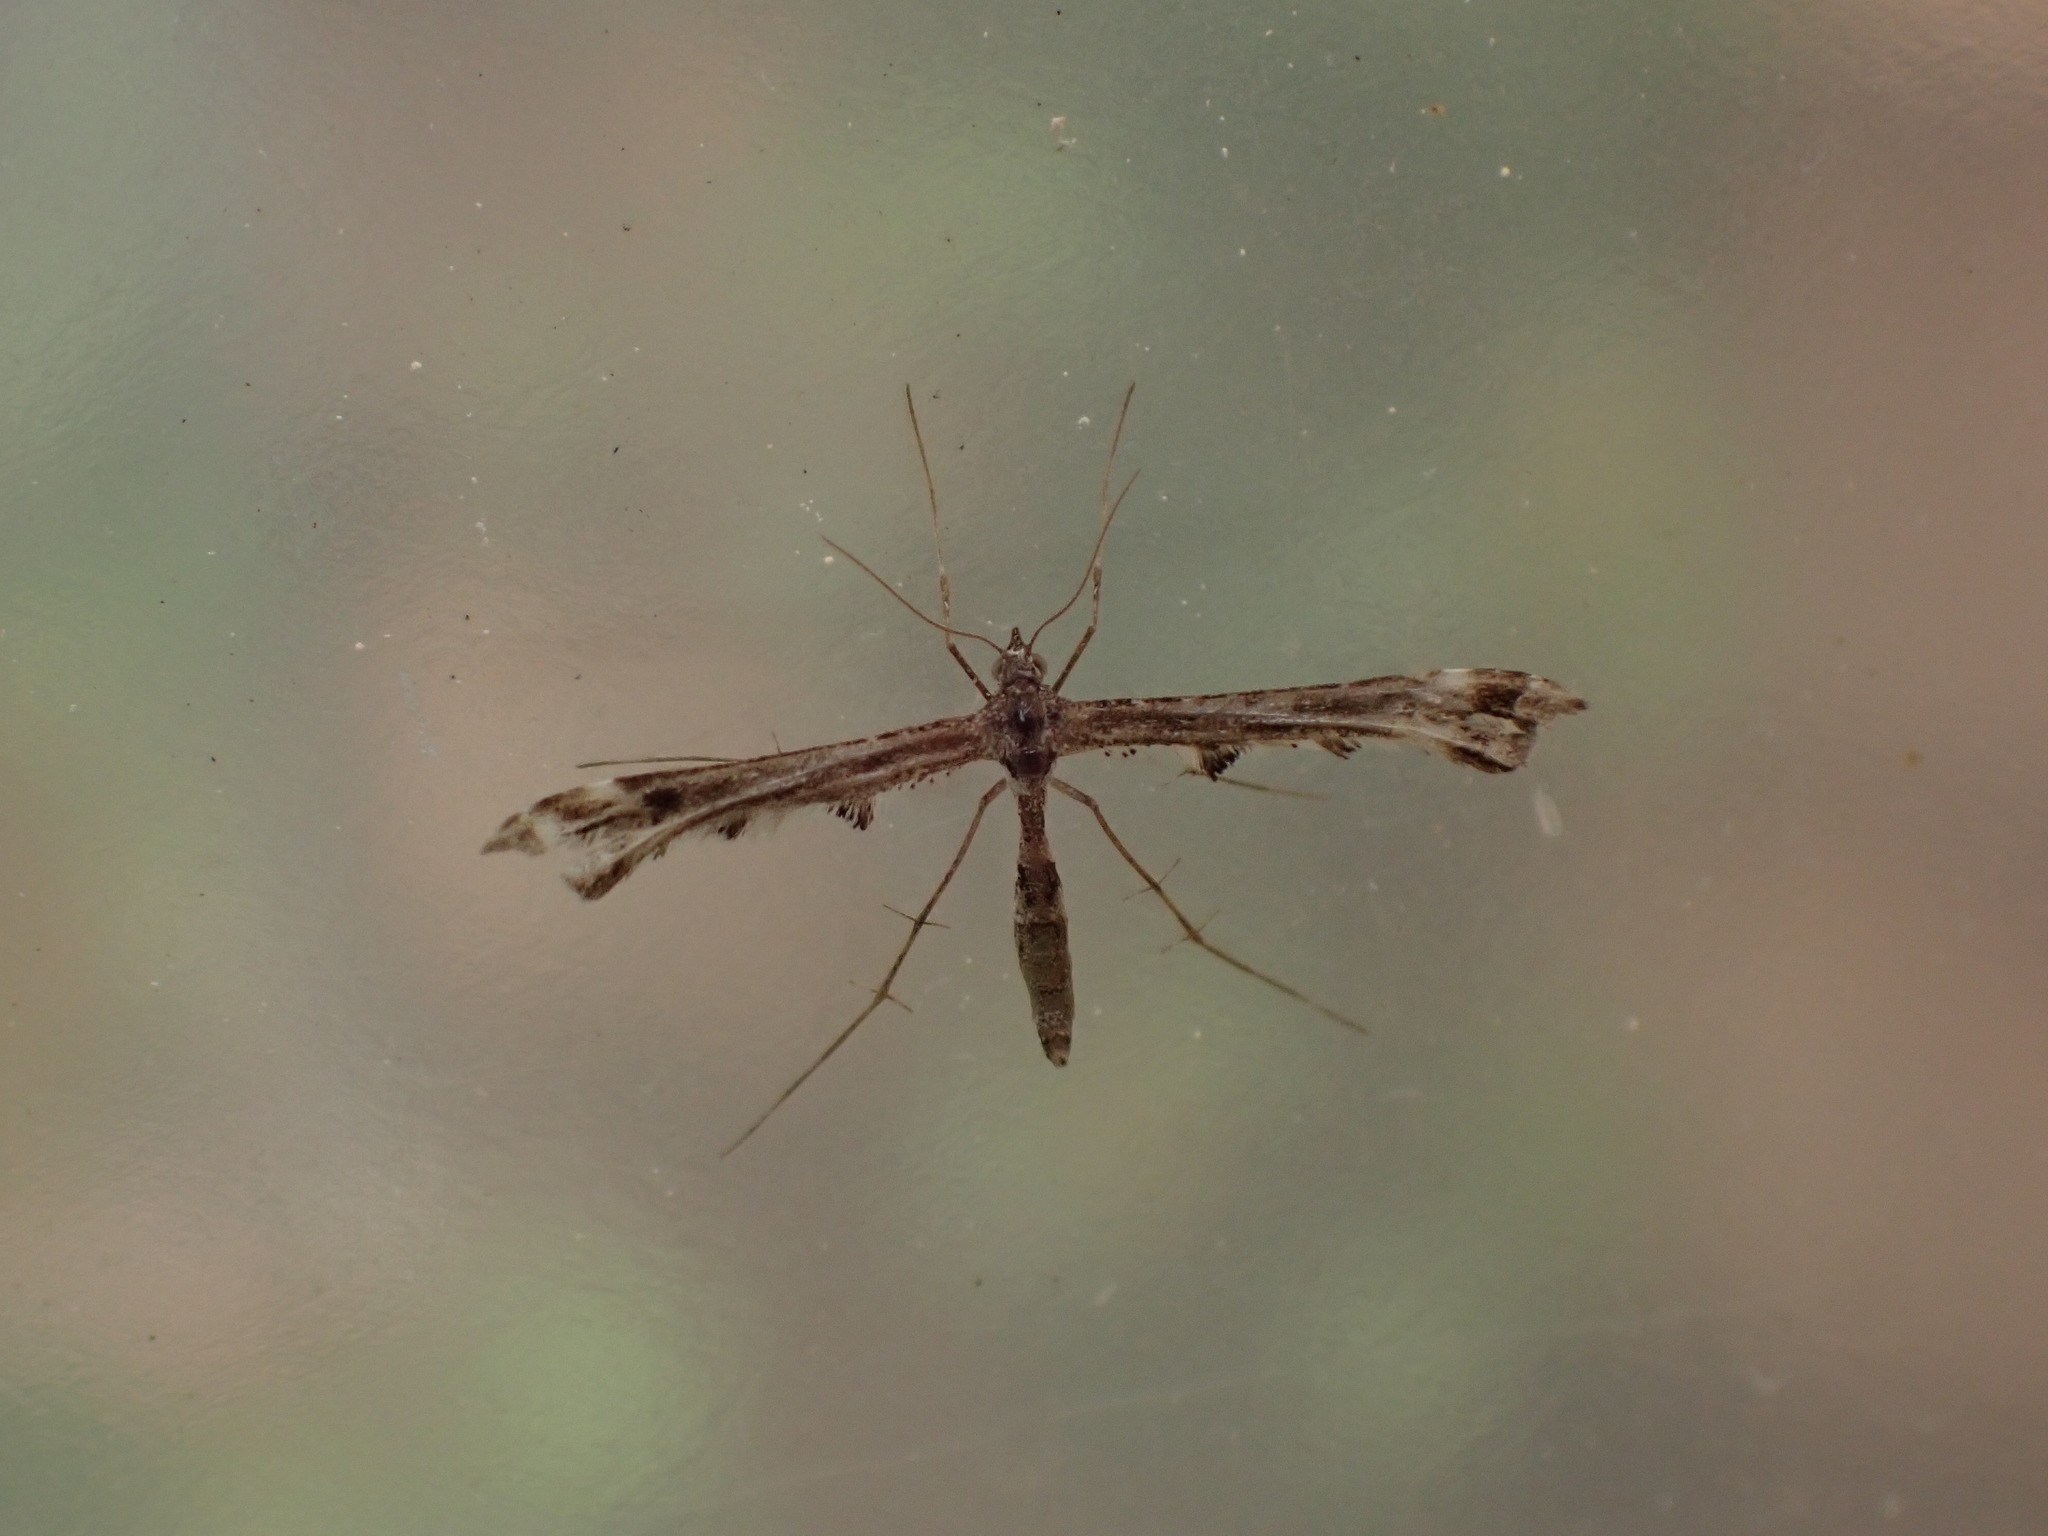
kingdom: Animalia
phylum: Arthropoda
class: Insecta
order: Lepidoptera
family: Pterophoridae
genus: Amblyptilia
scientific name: Amblyptilia pica
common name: Geranium plume moth
